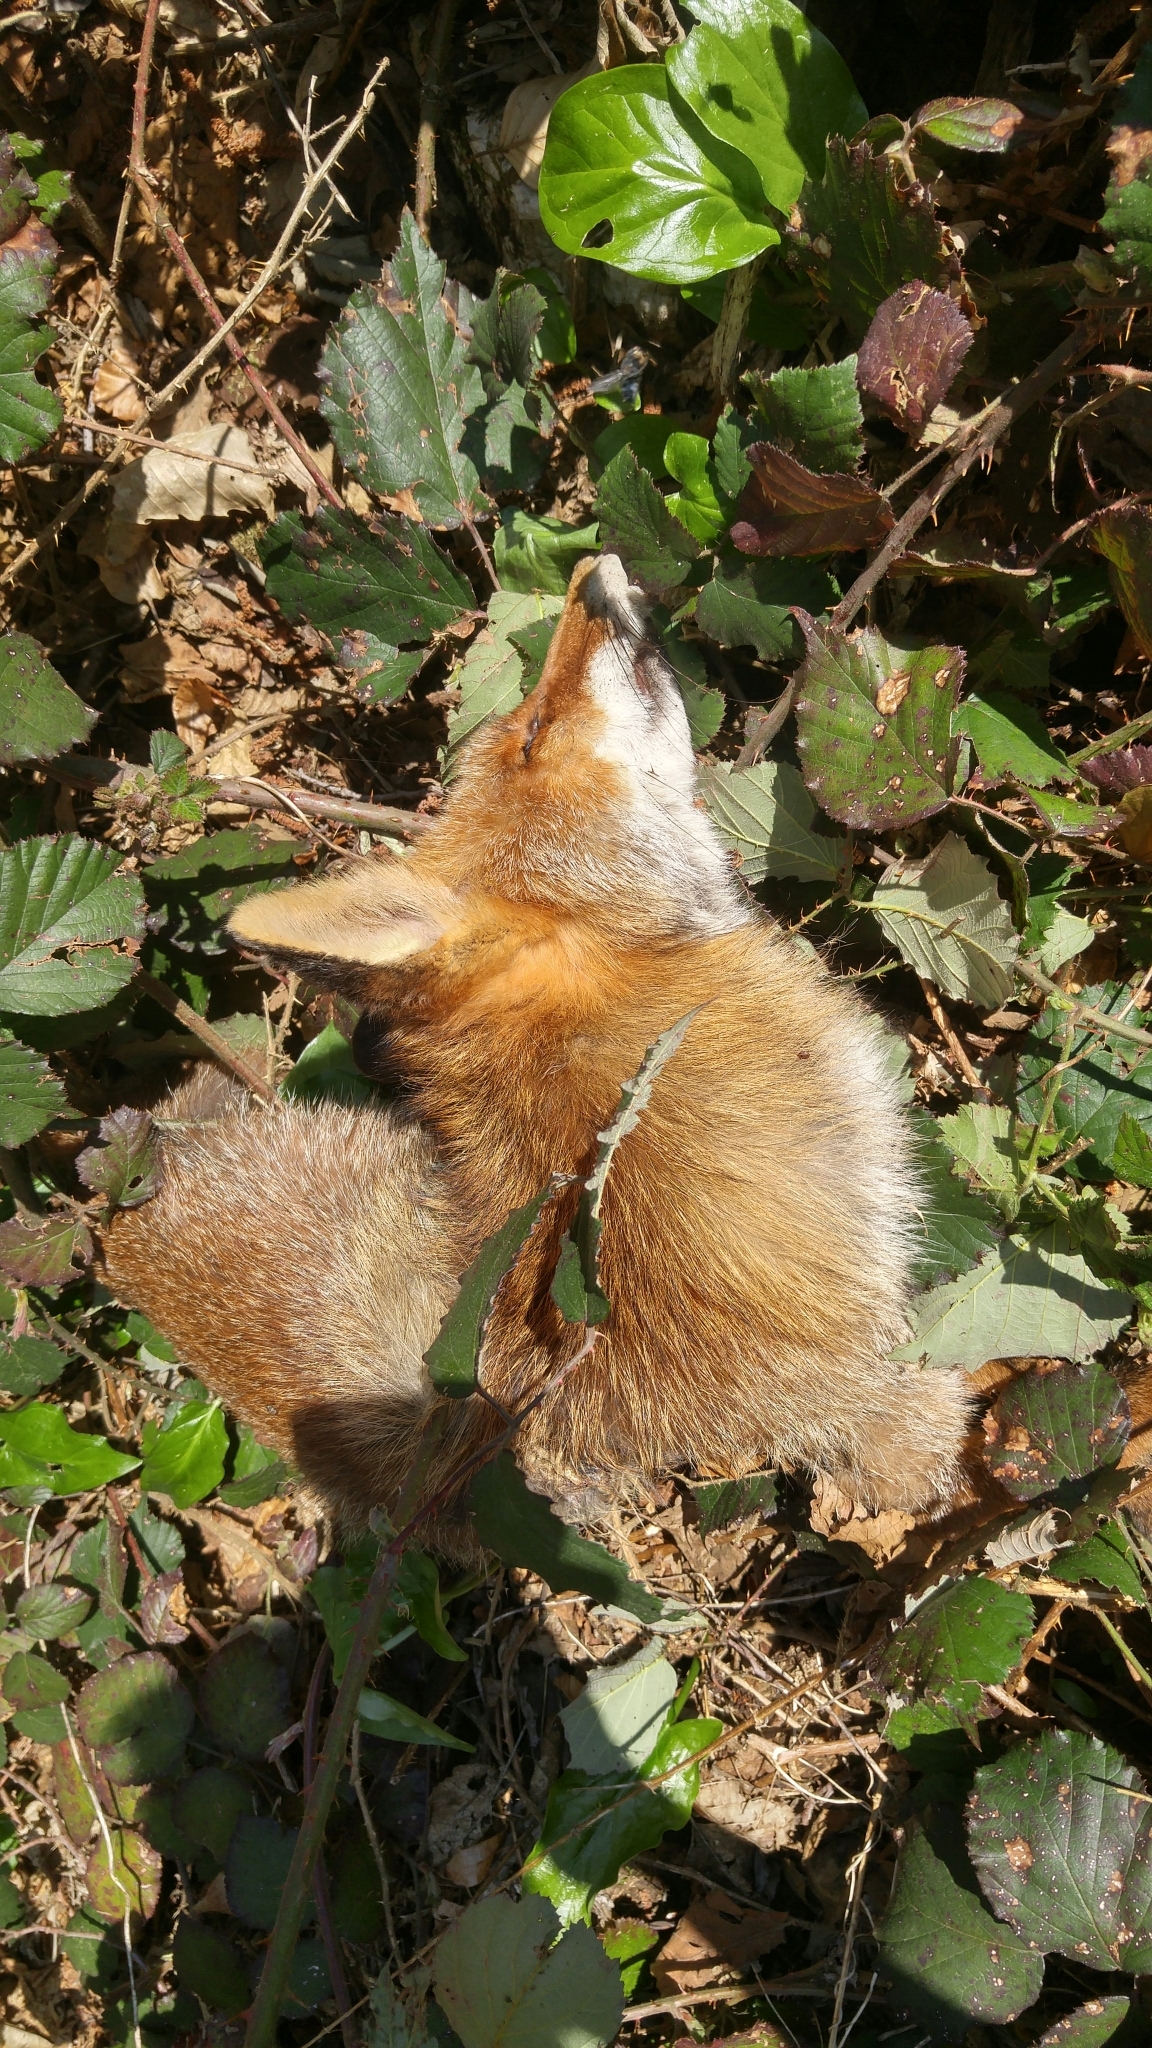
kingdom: Animalia
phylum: Chordata
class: Mammalia
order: Carnivora
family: Canidae
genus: Vulpes
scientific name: Vulpes vulpes
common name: Red fox
